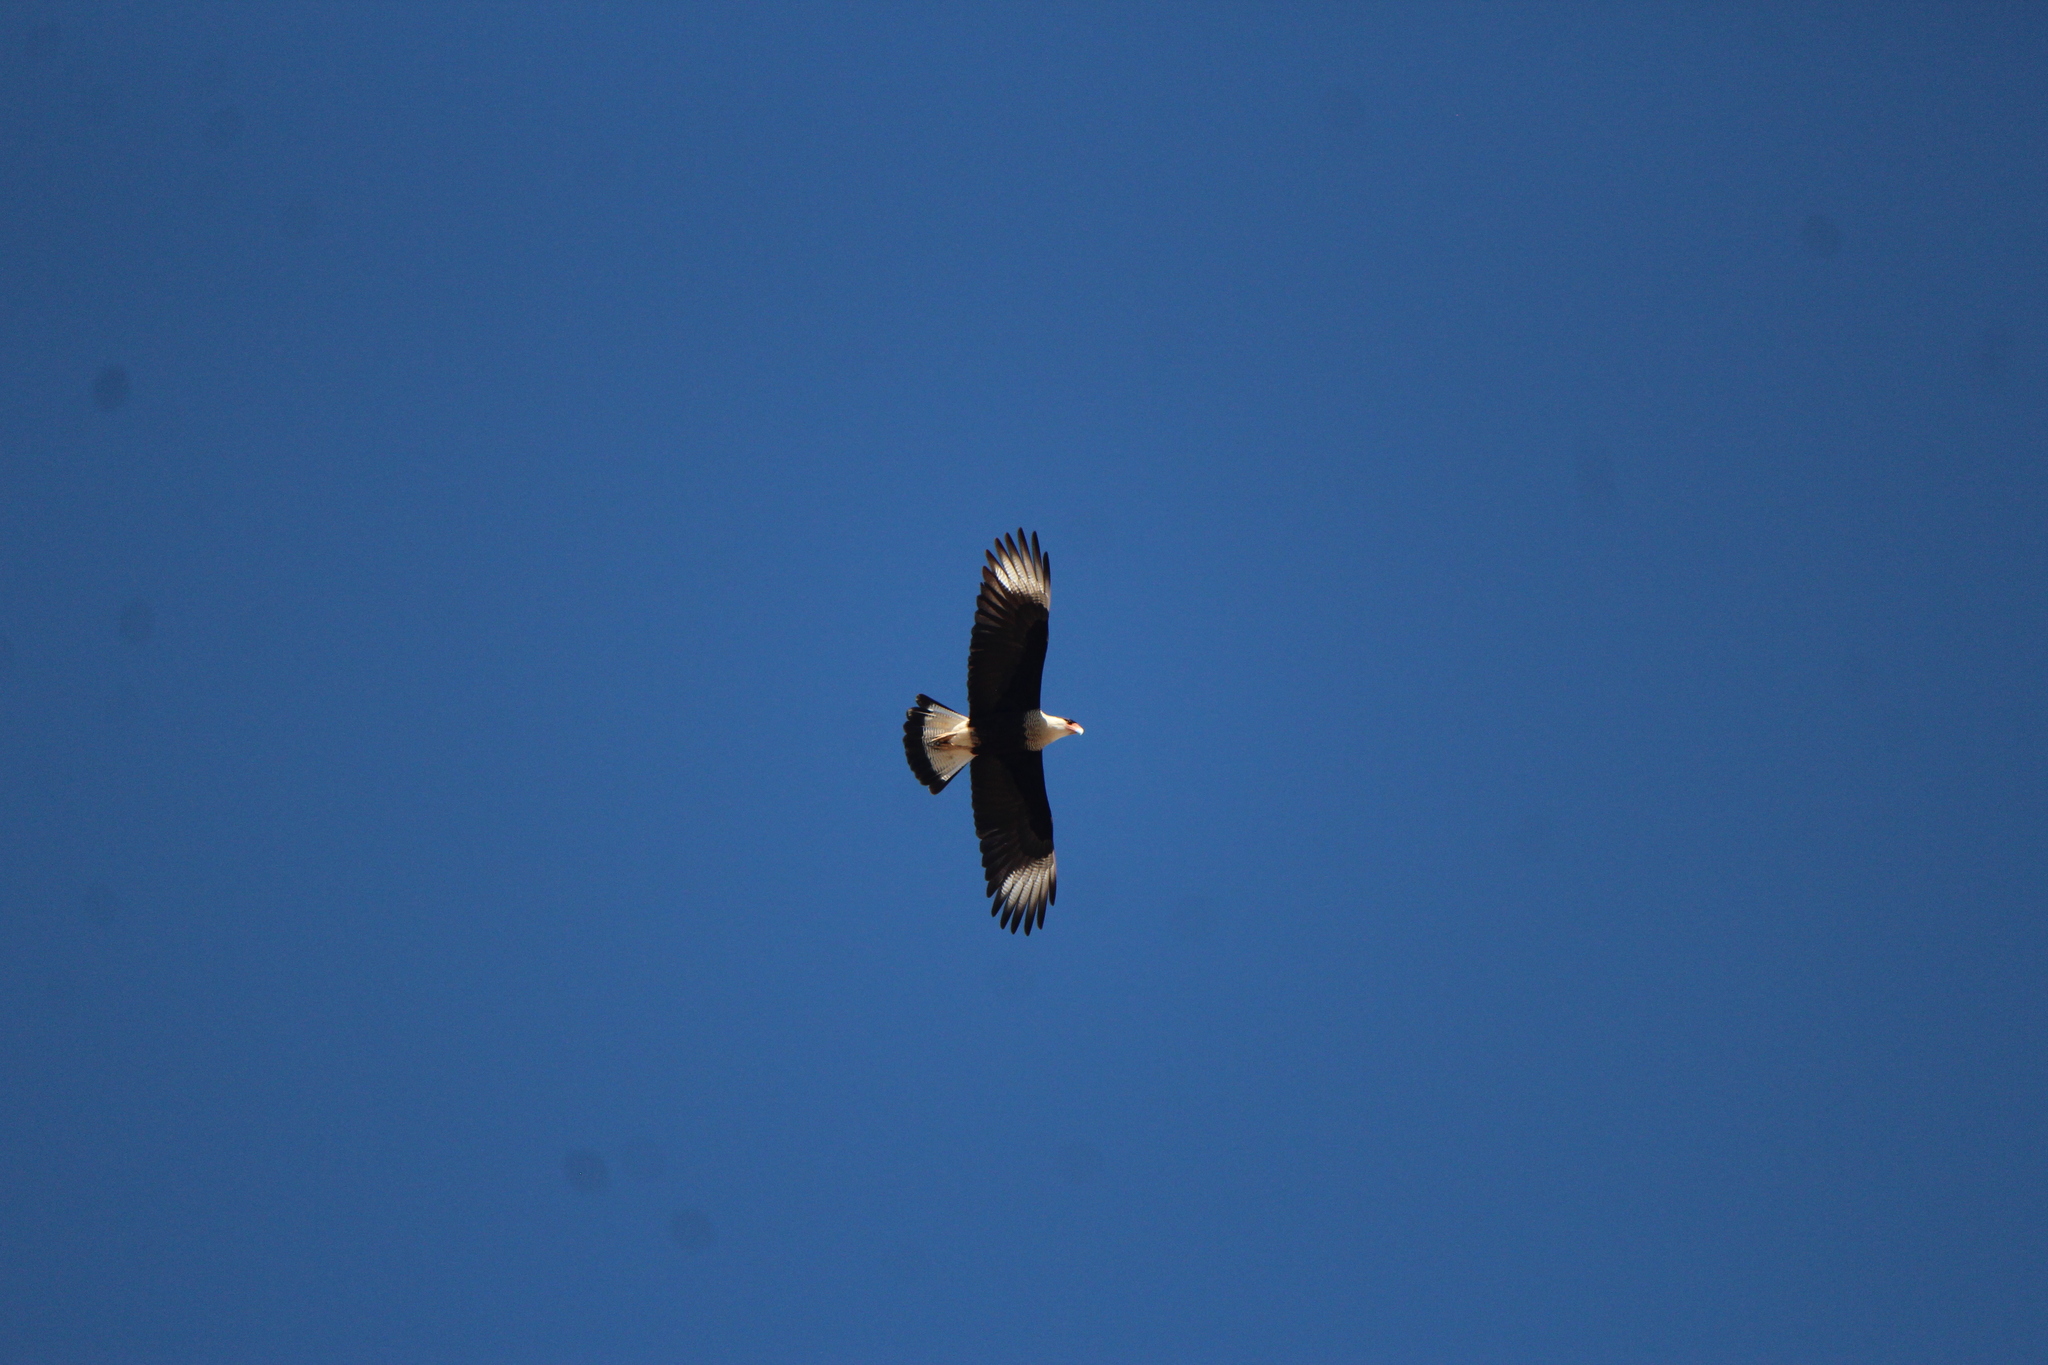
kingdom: Animalia
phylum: Chordata
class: Aves
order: Falconiformes
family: Falconidae
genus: Caracara
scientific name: Caracara plancus
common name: Southern caracara
